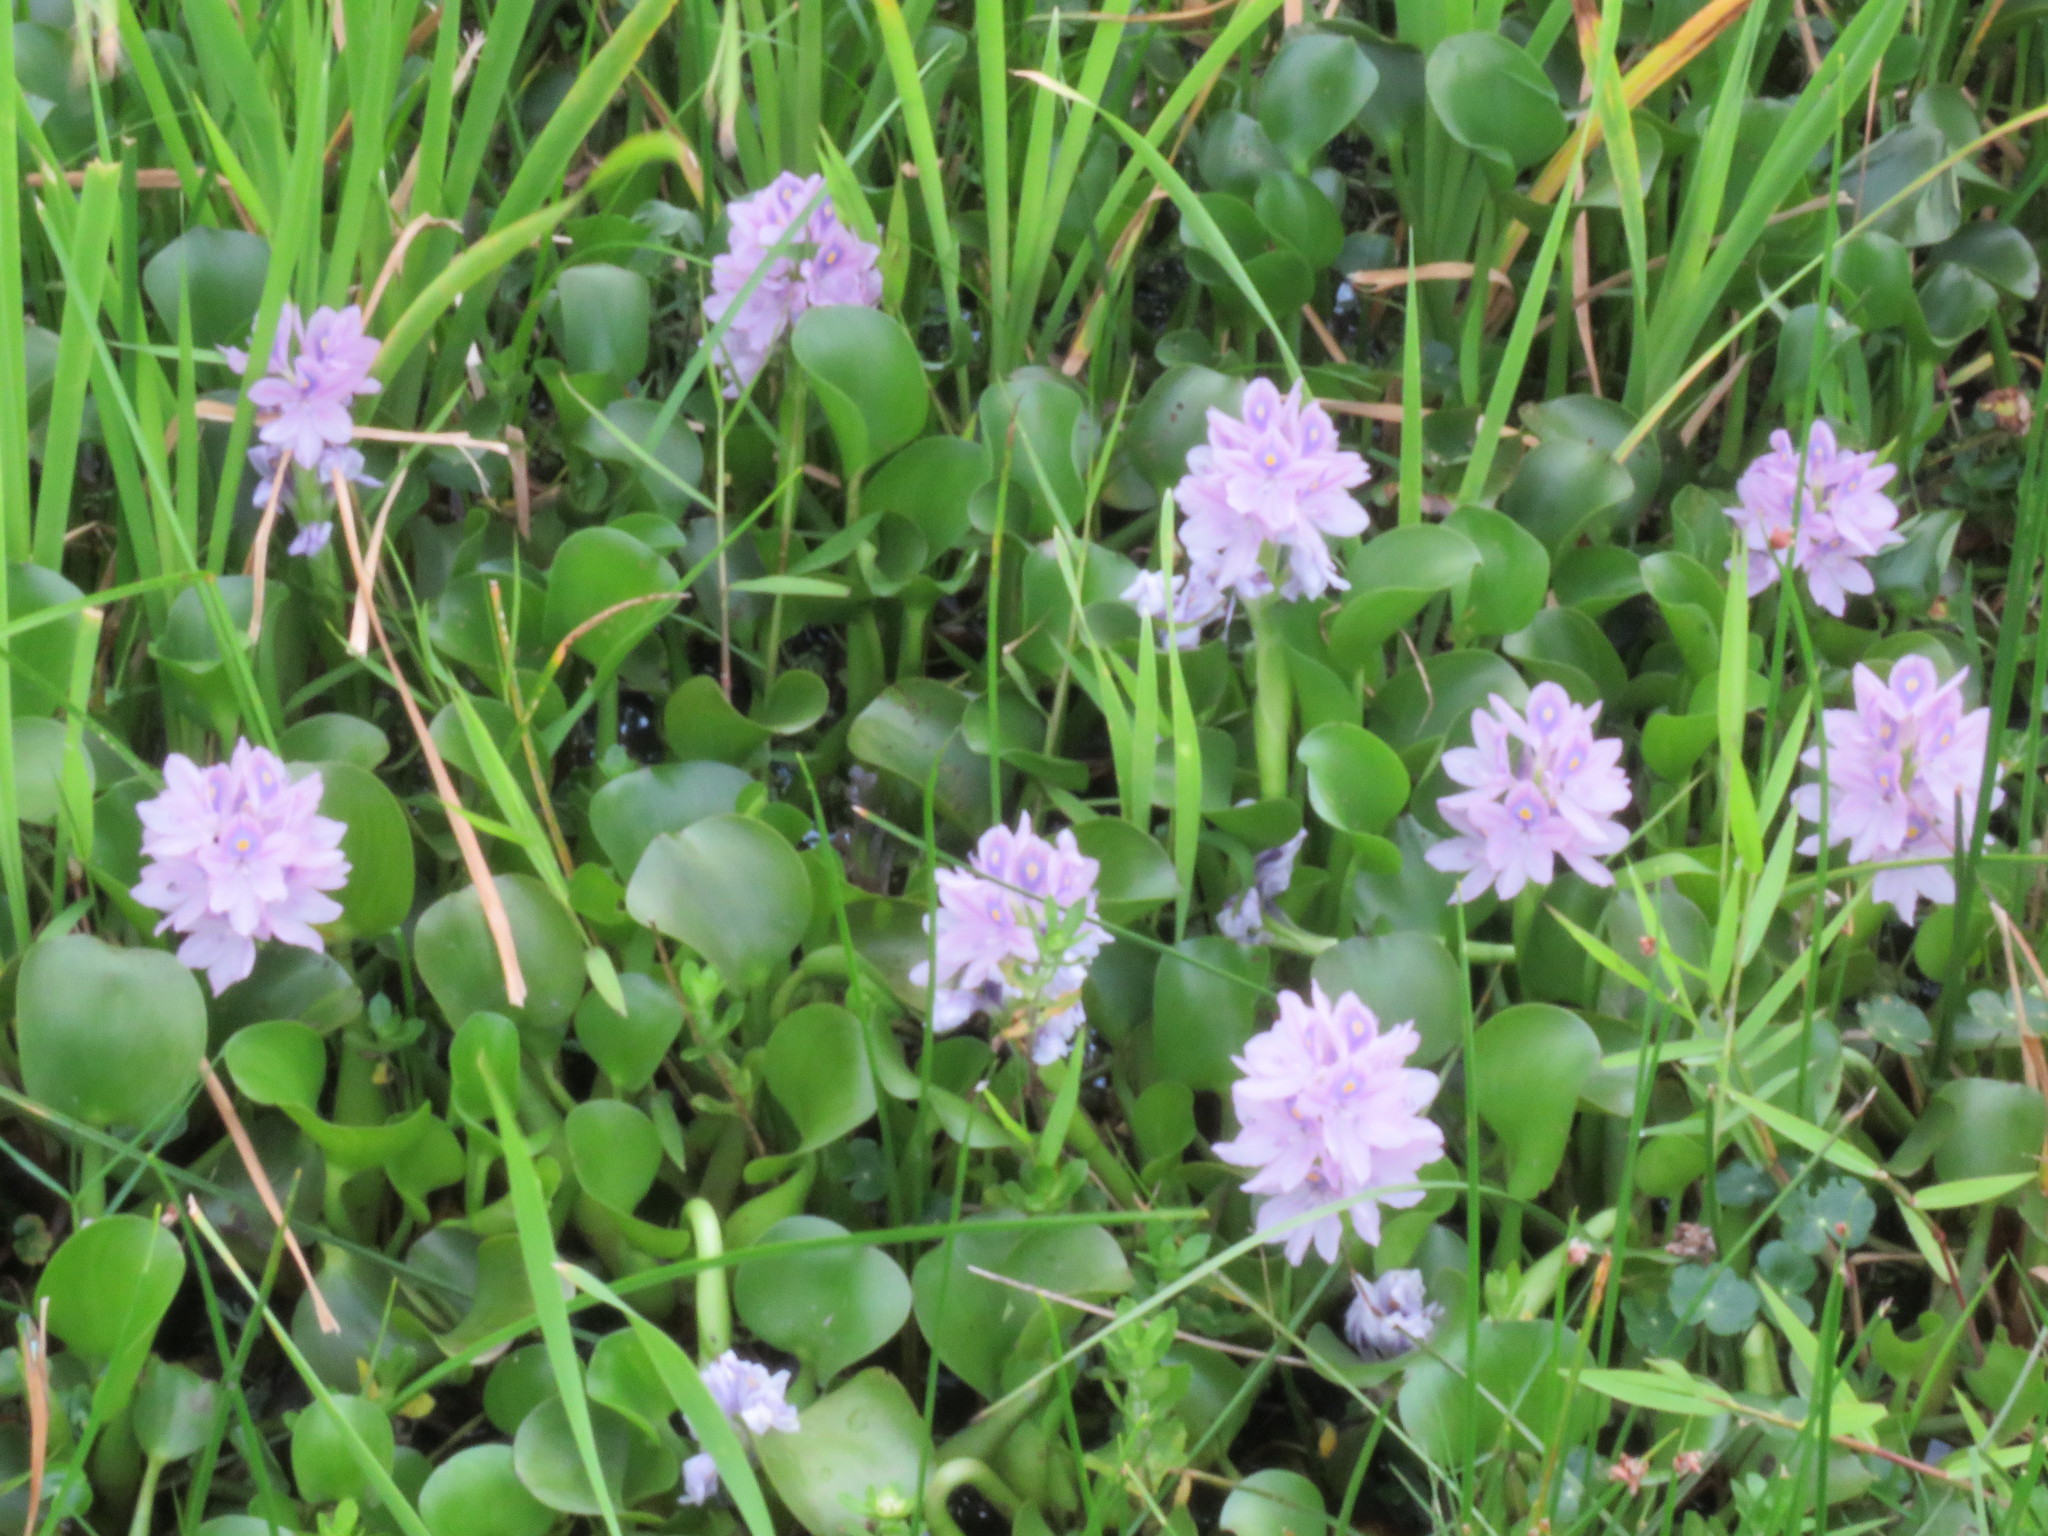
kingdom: Plantae
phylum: Tracheophyta
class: Liliopsida
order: Commelinales
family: Pontederiaceae
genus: Pontederia
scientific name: Pontederia crassipes
